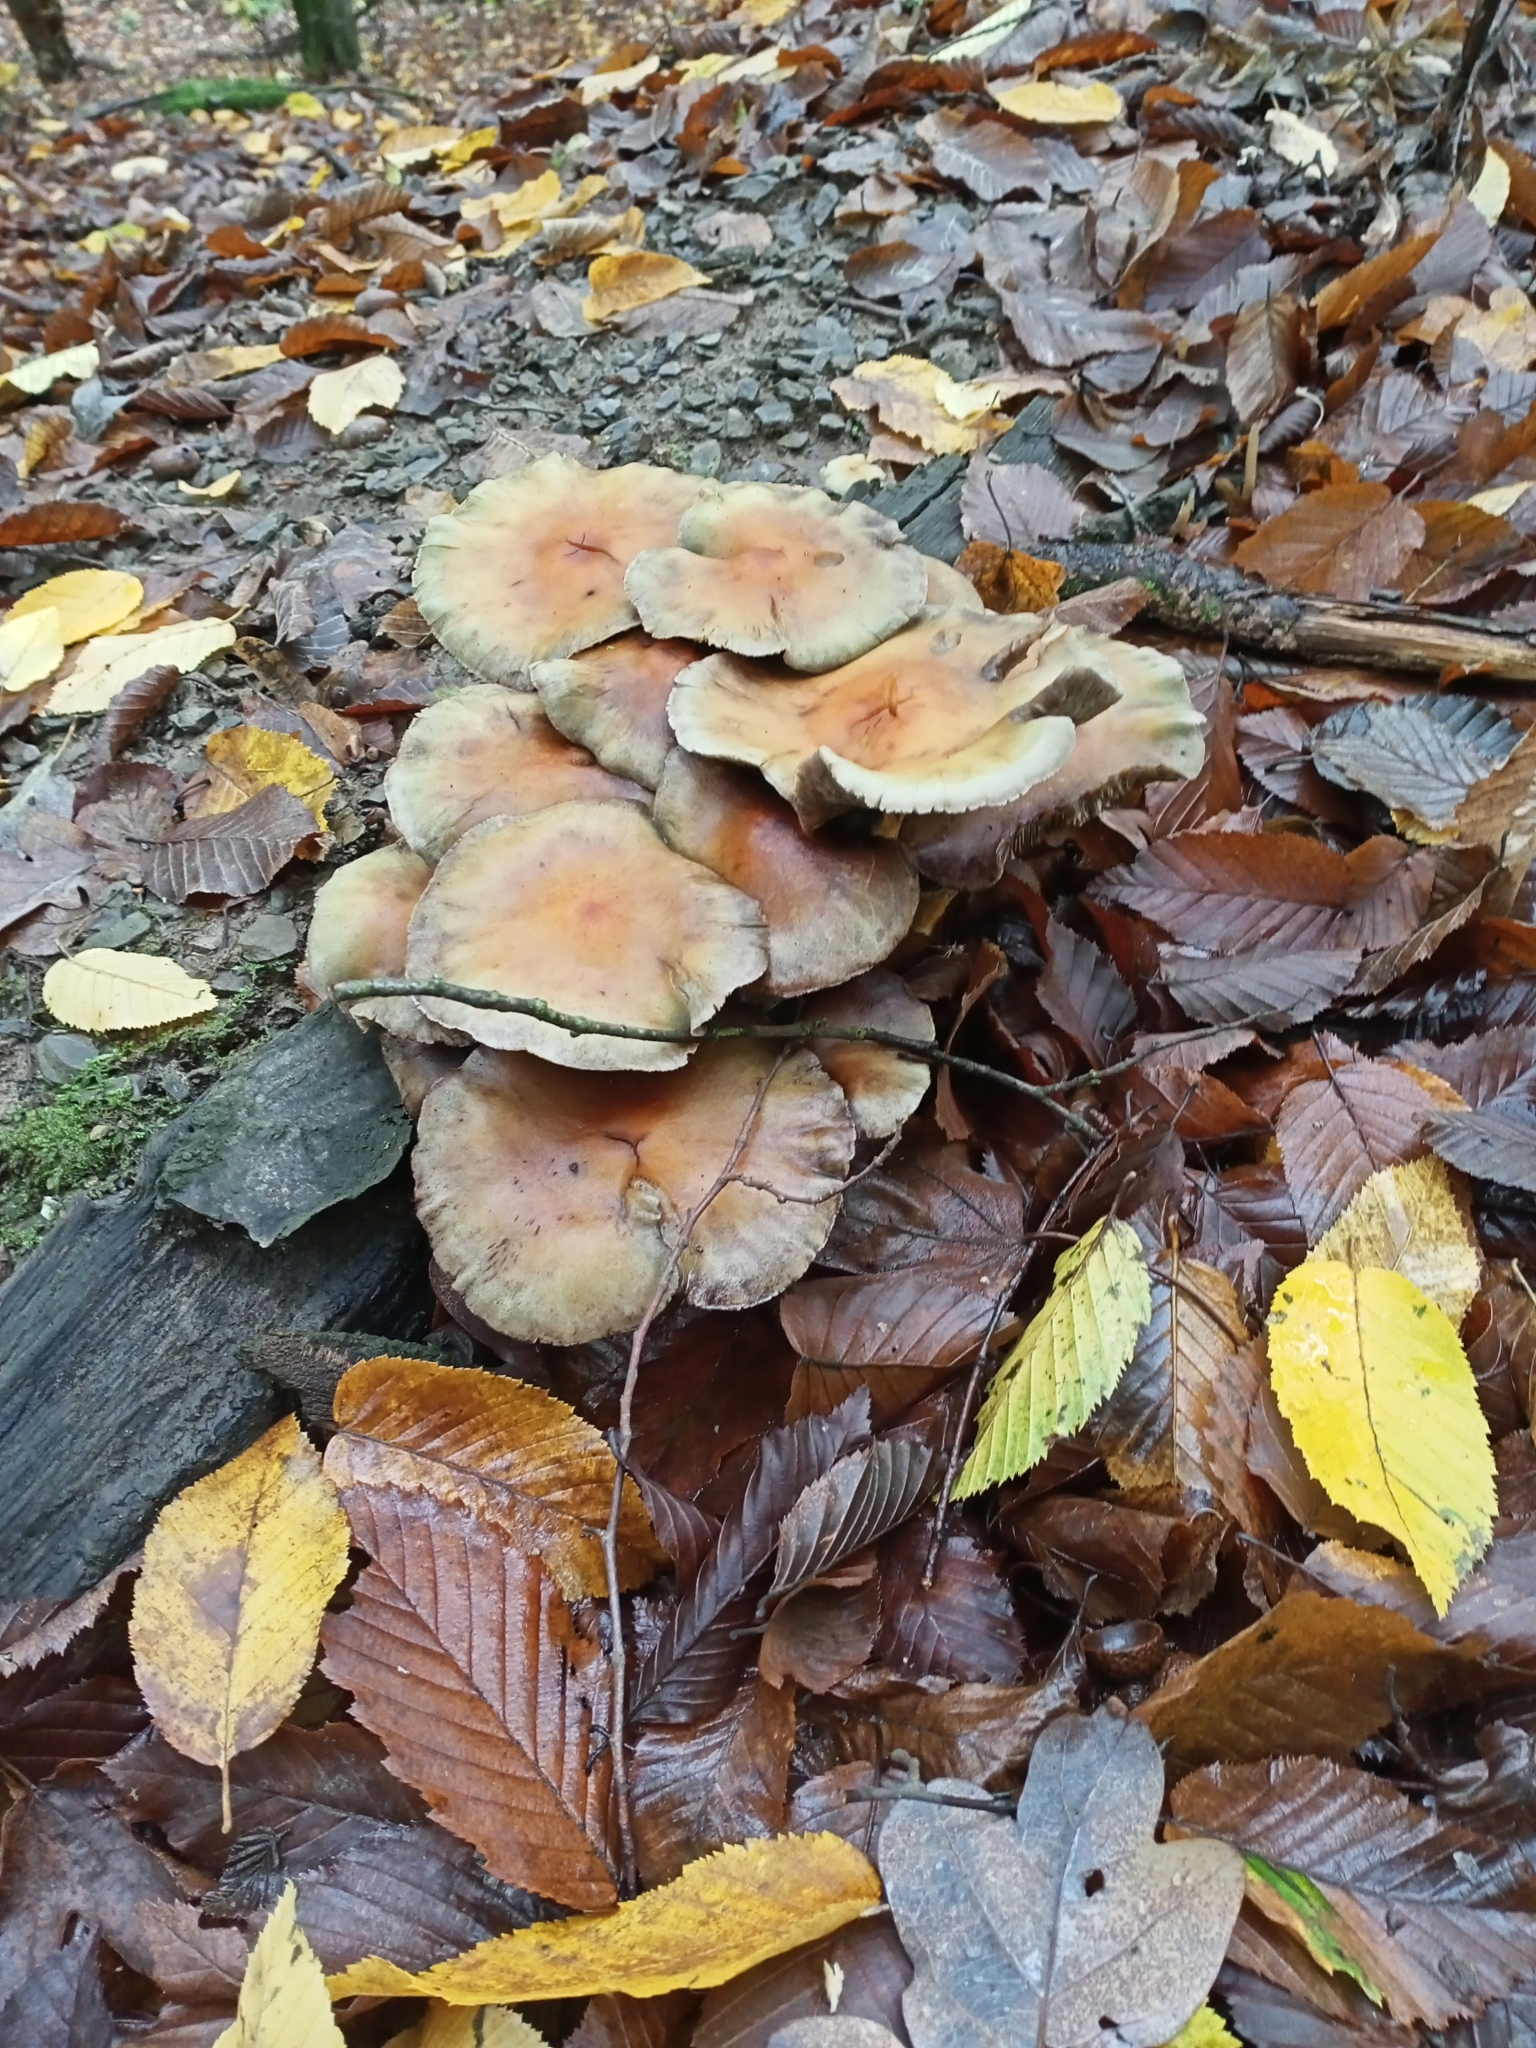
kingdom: Fungi
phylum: Basidiomycota
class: Agaricomycetes
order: Agaricales
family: Strophariaceae
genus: Hypholoma
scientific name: Hypholoma fasciculare
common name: Sulphur tuft
